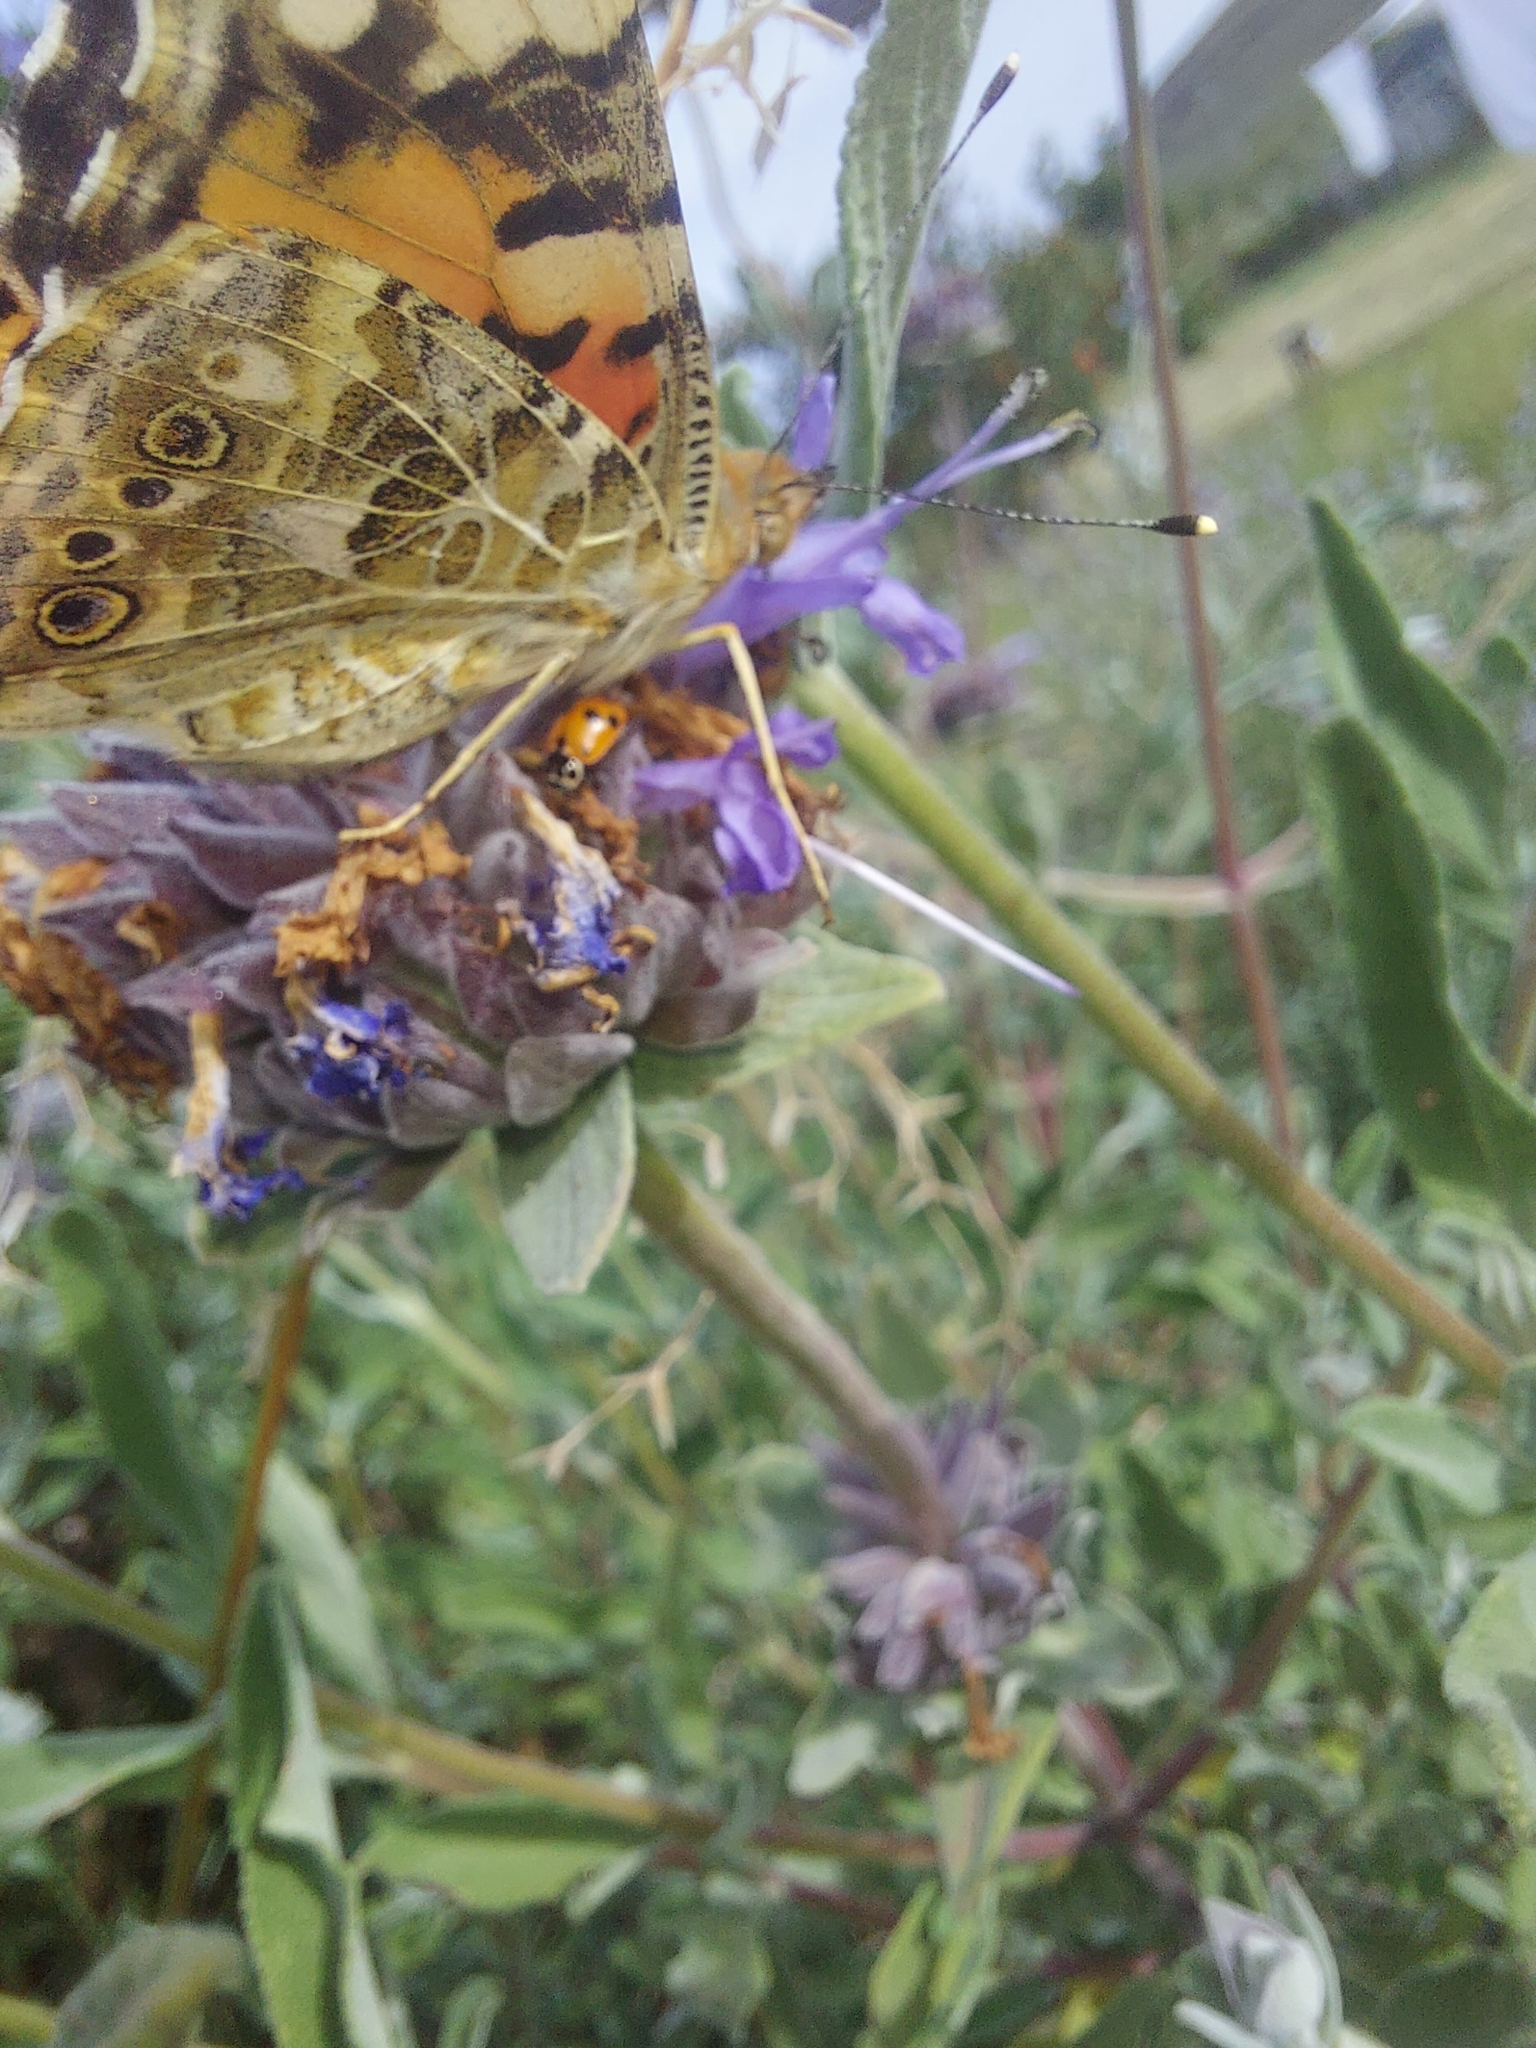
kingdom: Animalia
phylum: Arthropoda
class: Insecta
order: Lepidoptera
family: Nymphalidae
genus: Vanessa
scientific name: Vanessa cardui
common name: Painted lady
